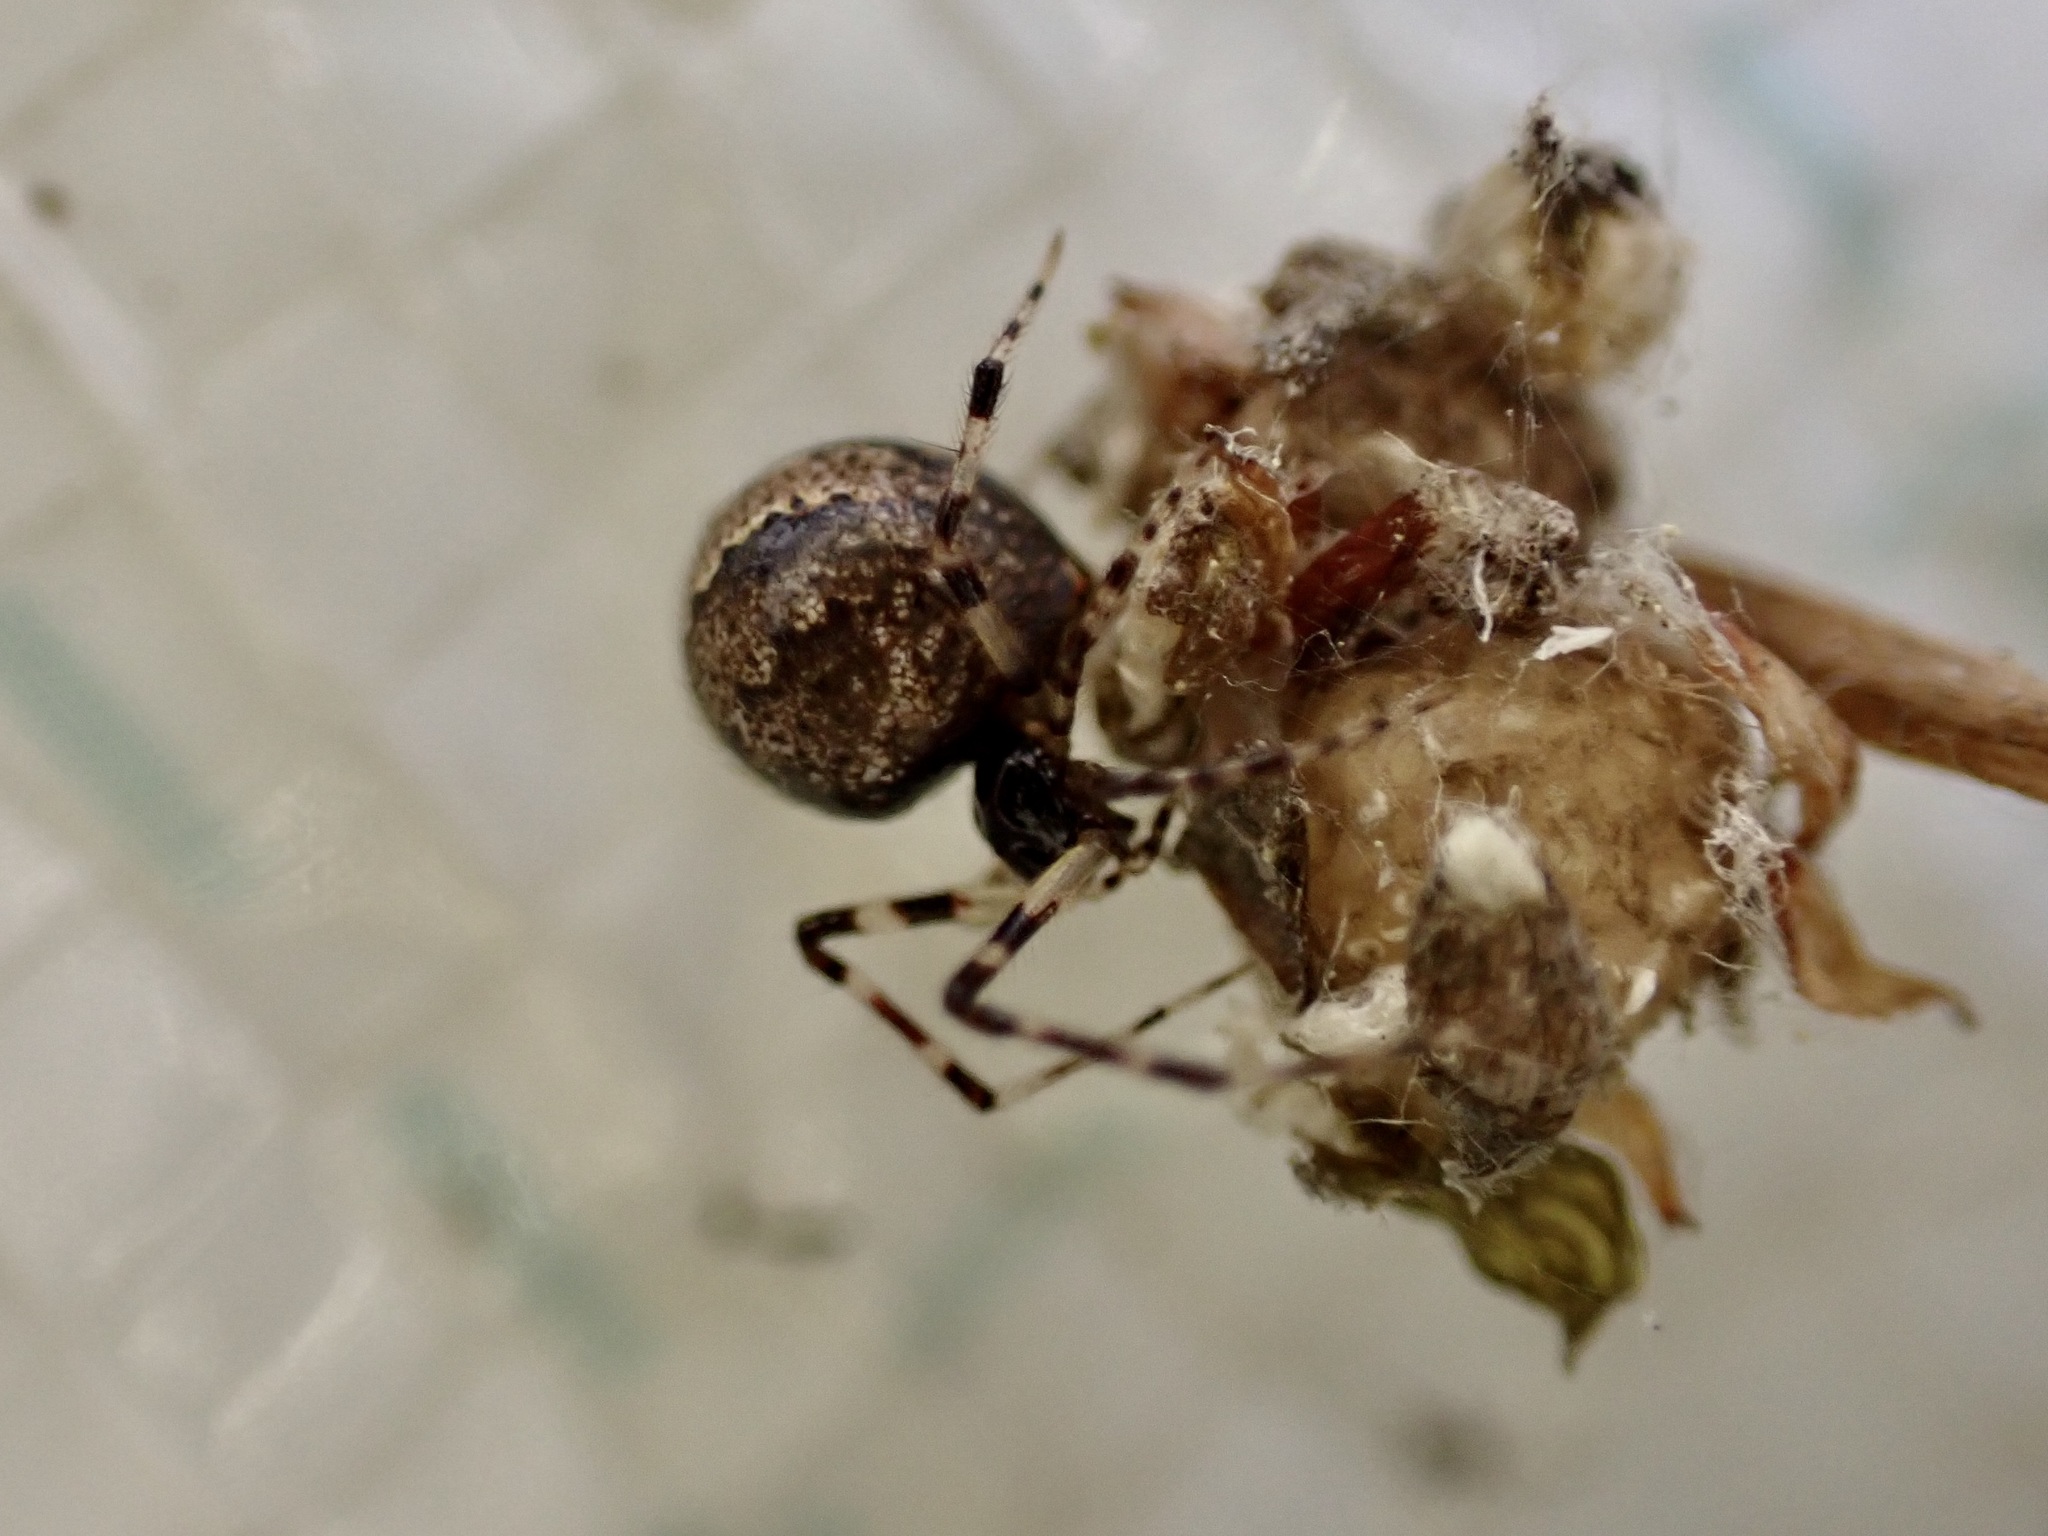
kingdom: Animalia
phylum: Arthropoda
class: Arachnida
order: Araneae
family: Theridiidae
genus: Cryptachaea
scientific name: Cryptachaea blattea
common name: Theridiid spider
